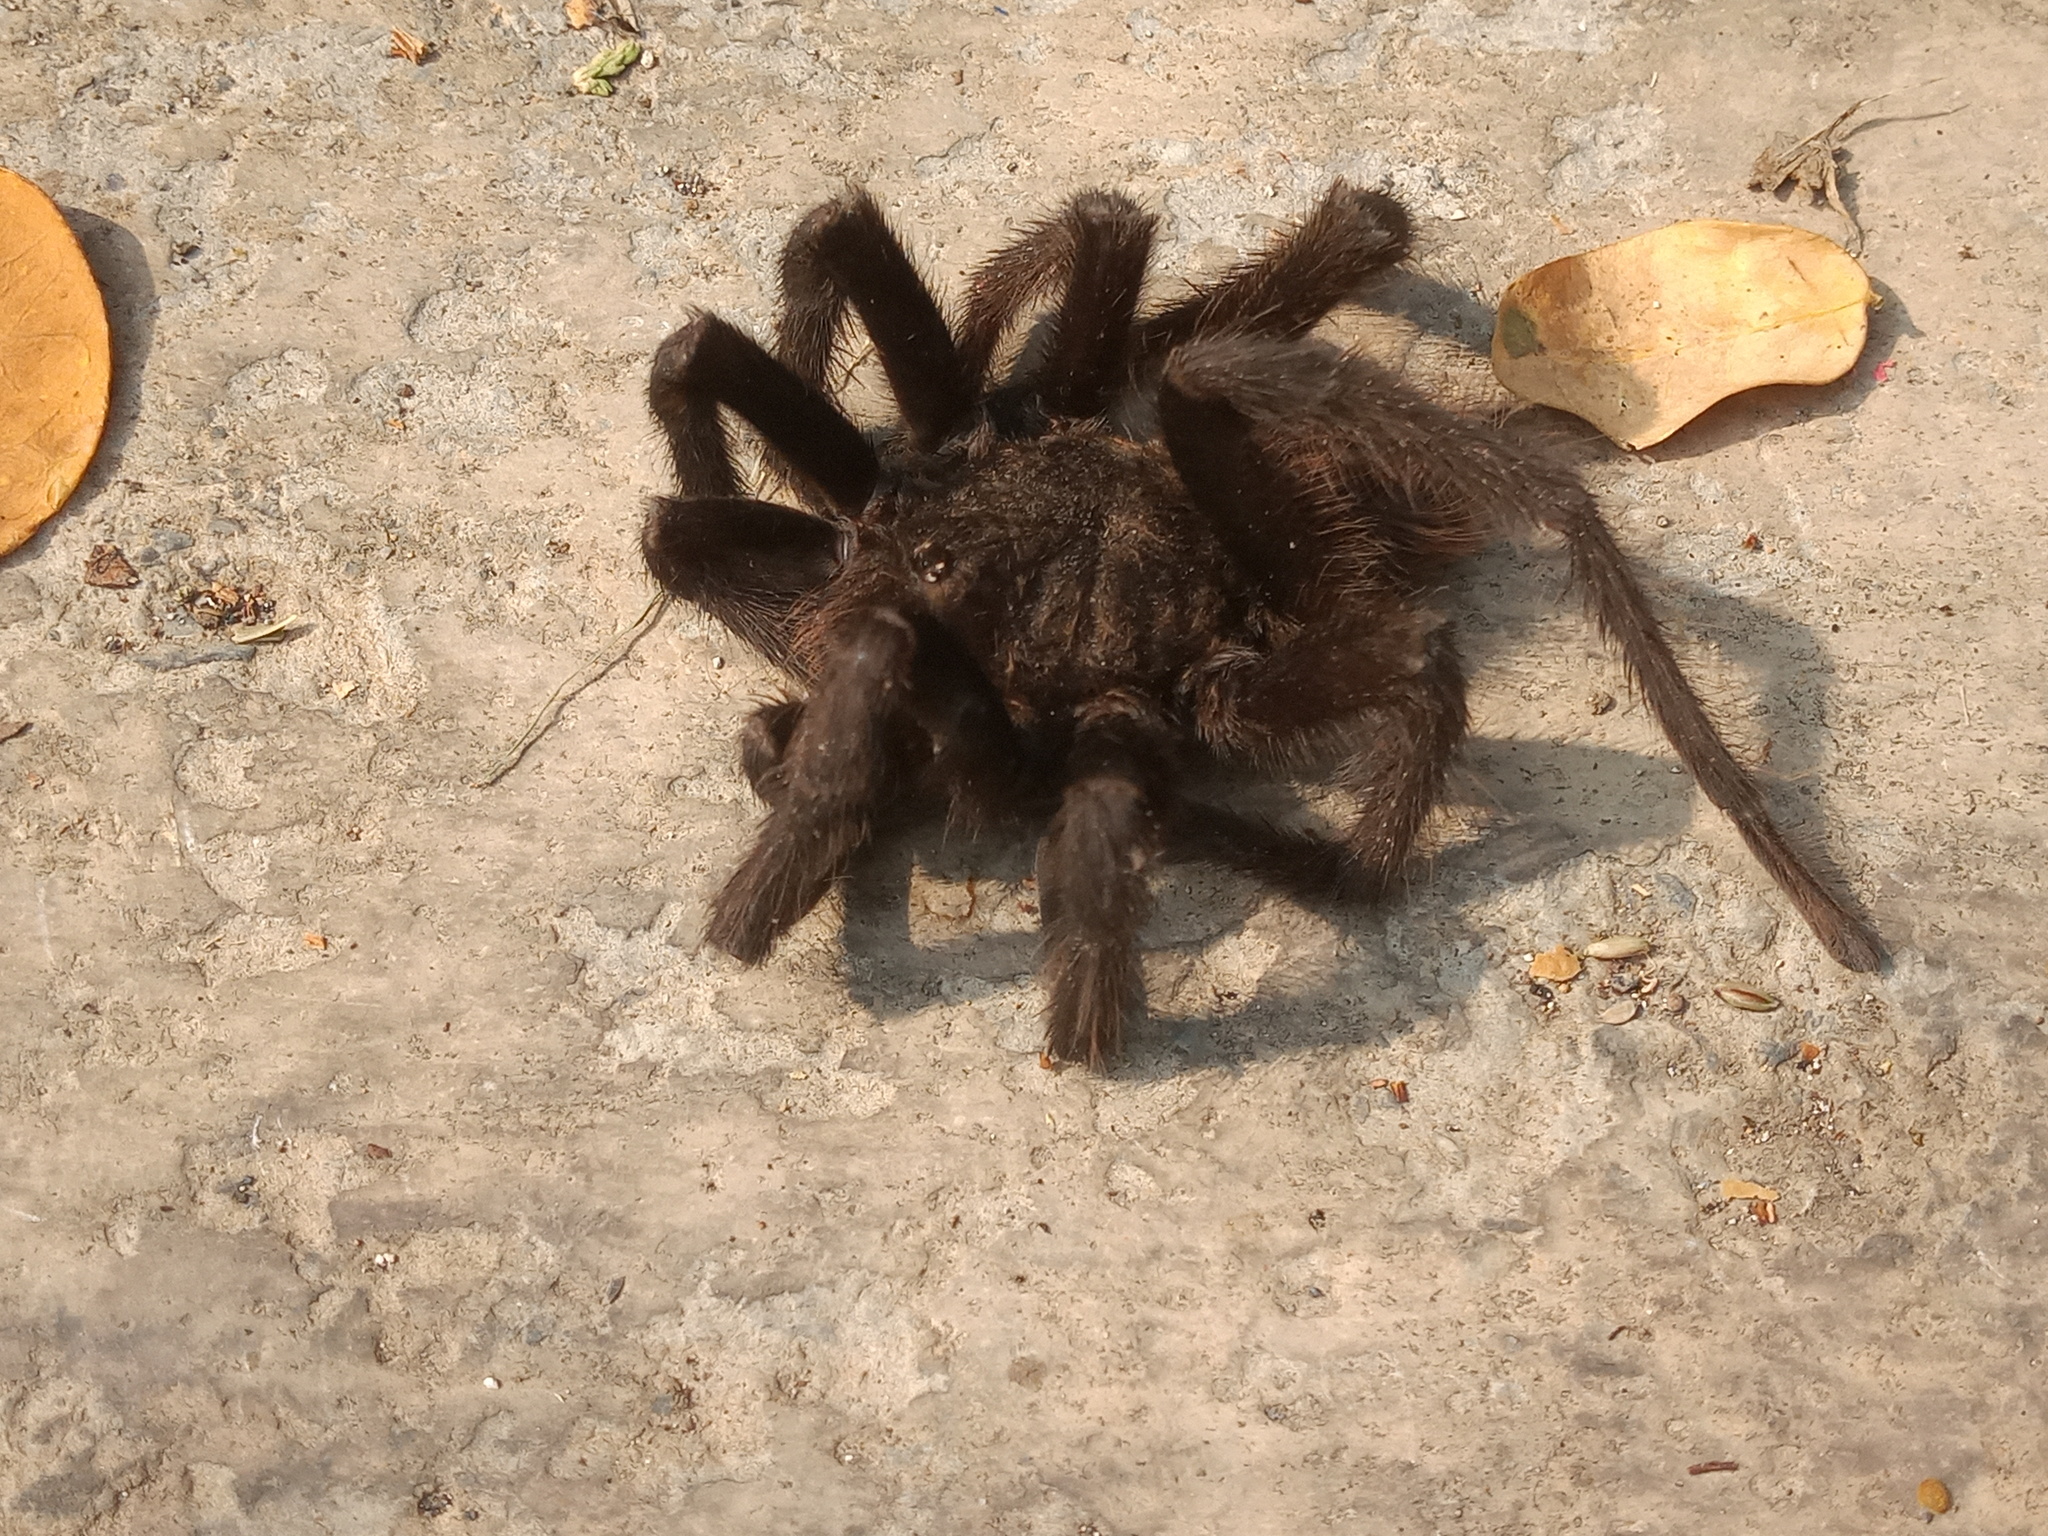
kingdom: Animalia
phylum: Arthropoda
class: Arachnida
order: Araneae
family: Theraphosidae
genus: Aphonopelma
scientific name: Aphonopelma anax
